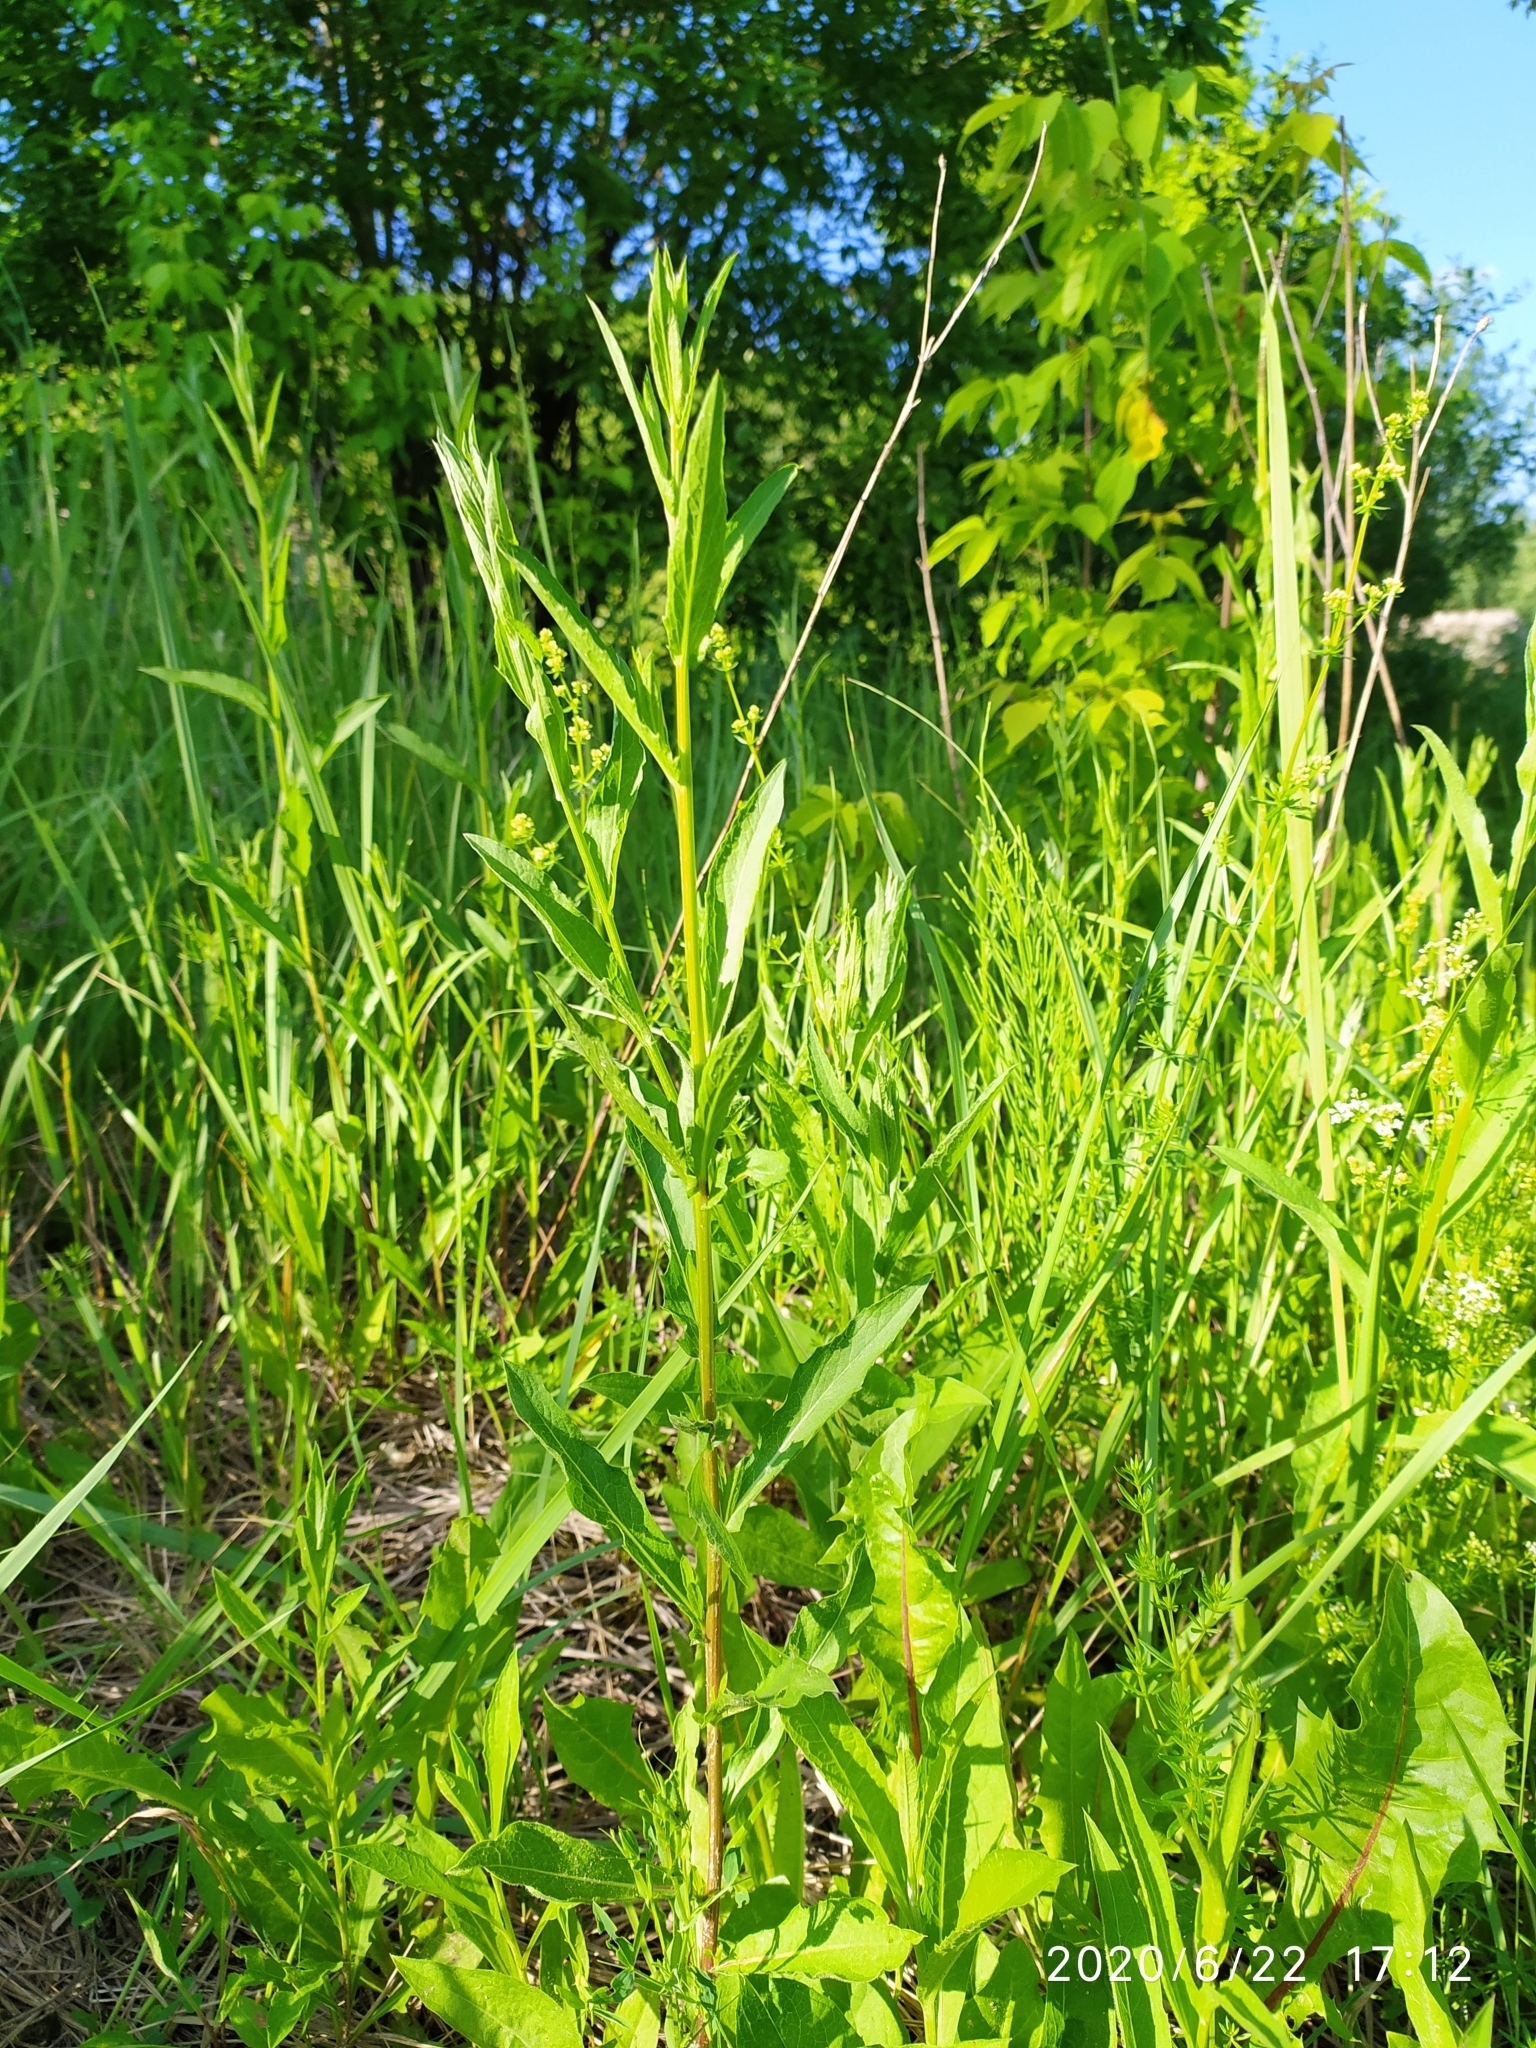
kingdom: Plantae
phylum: Tracheophyta
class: Magnoliopsida
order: Asterales
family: Asteraceae
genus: Centaurea
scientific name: Centaurea jacea
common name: Brown knapweed
